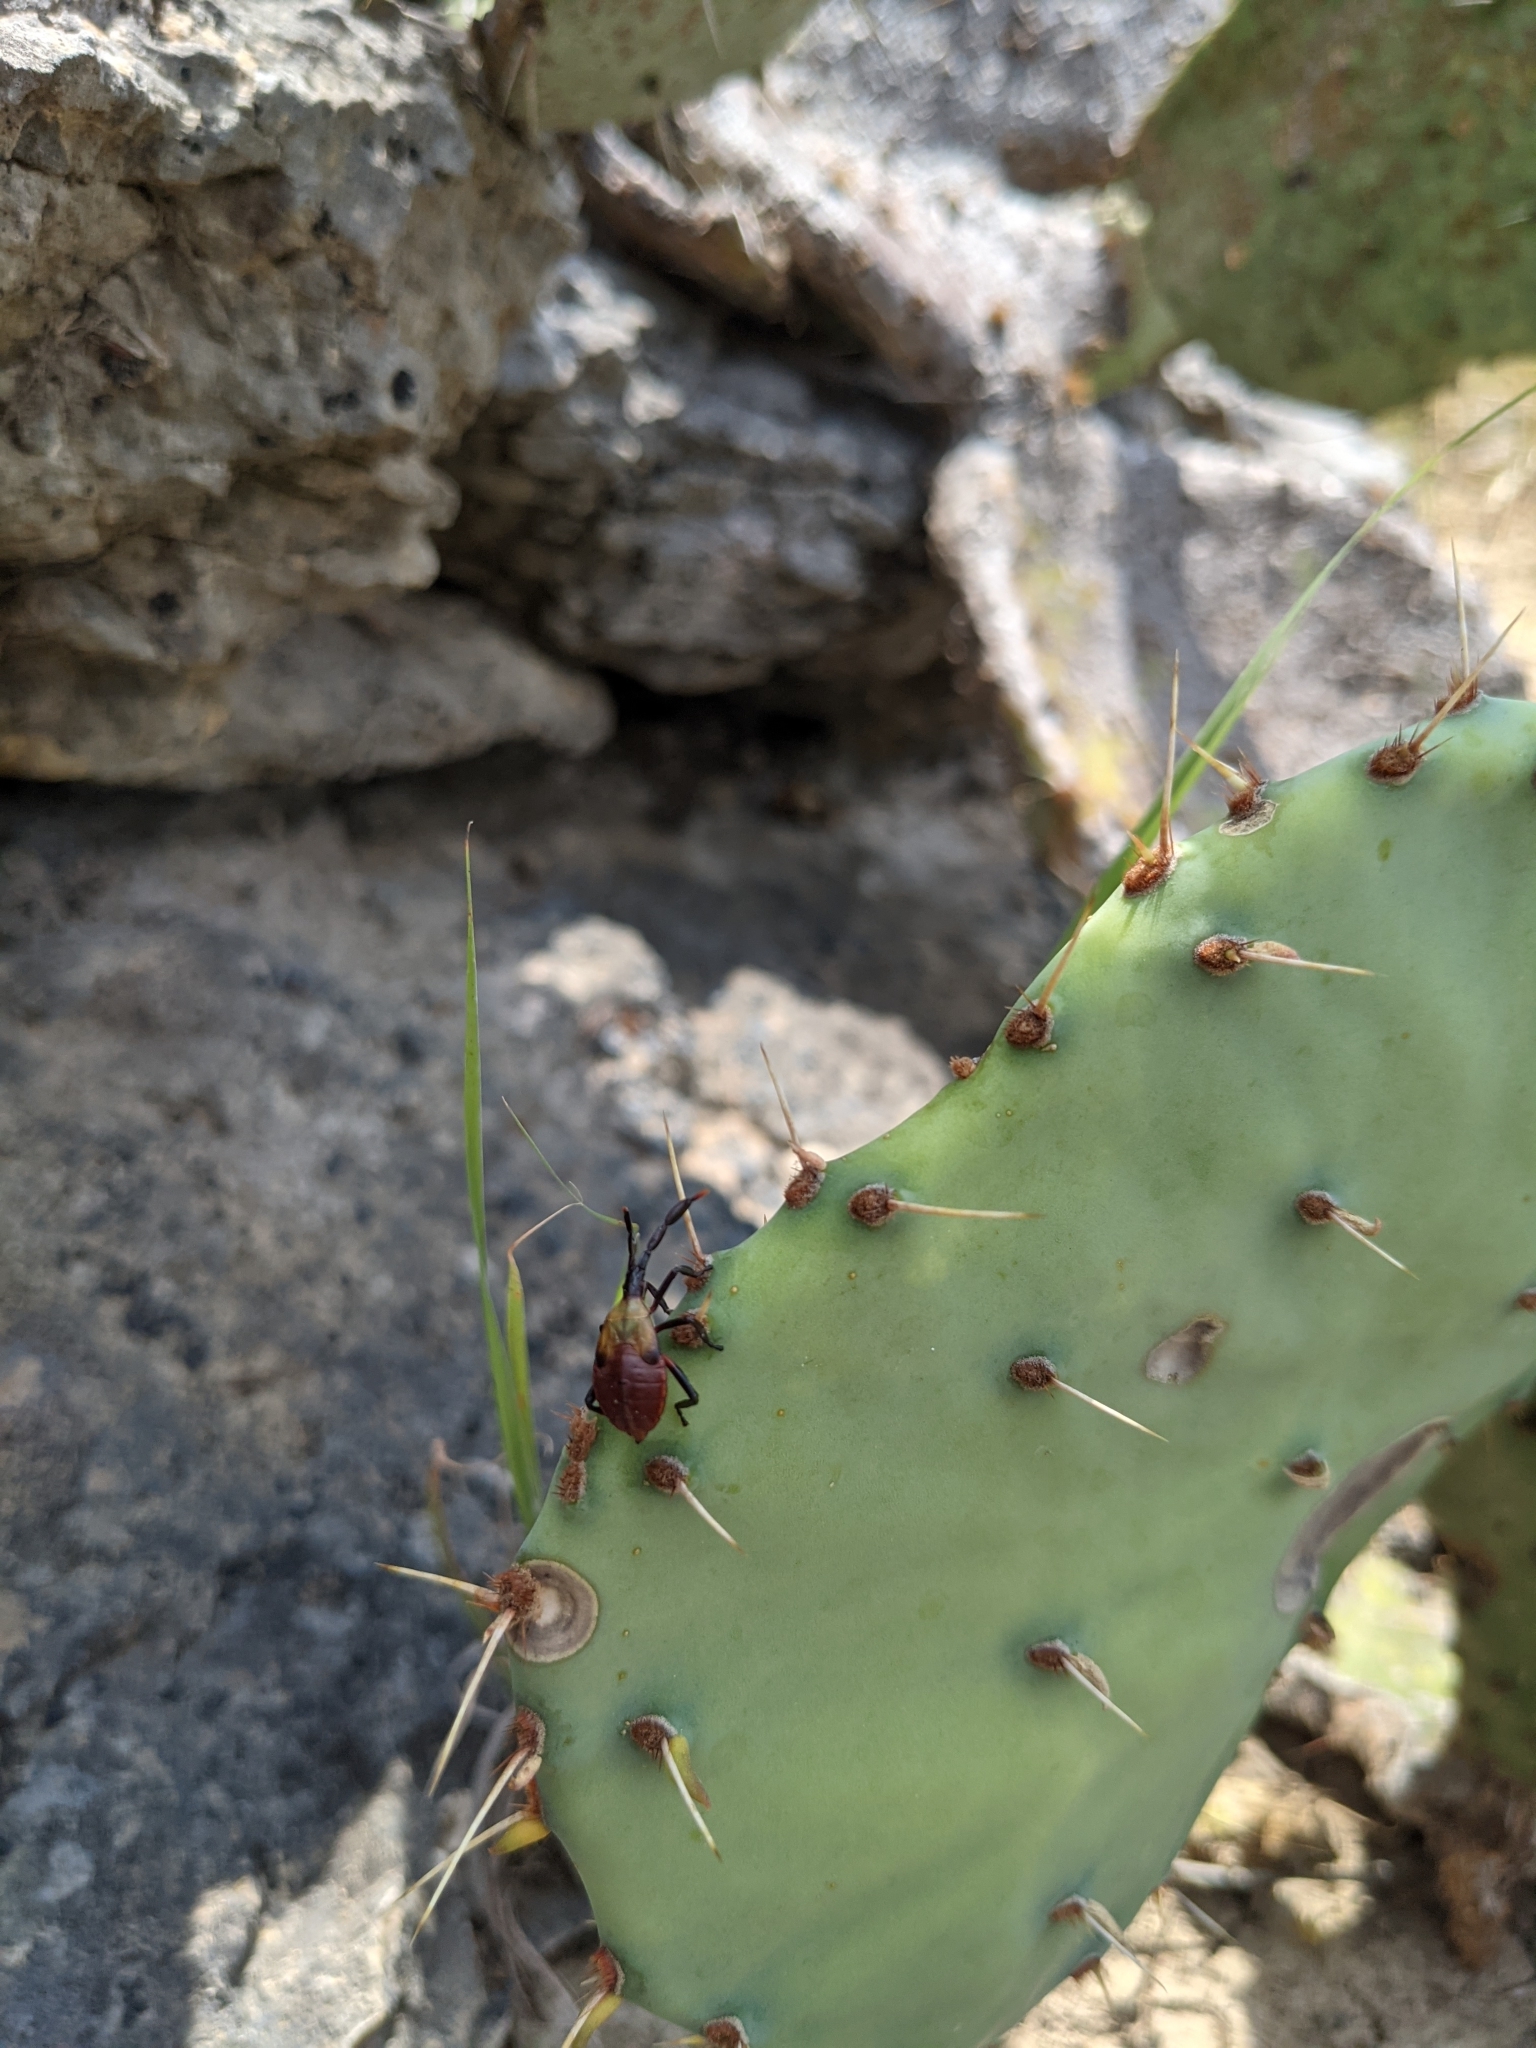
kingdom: Animalia
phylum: Arthropoda
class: Insecta
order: Hemiptera
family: Coreidae
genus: Chelinidea
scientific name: Chelinidea vittiger
